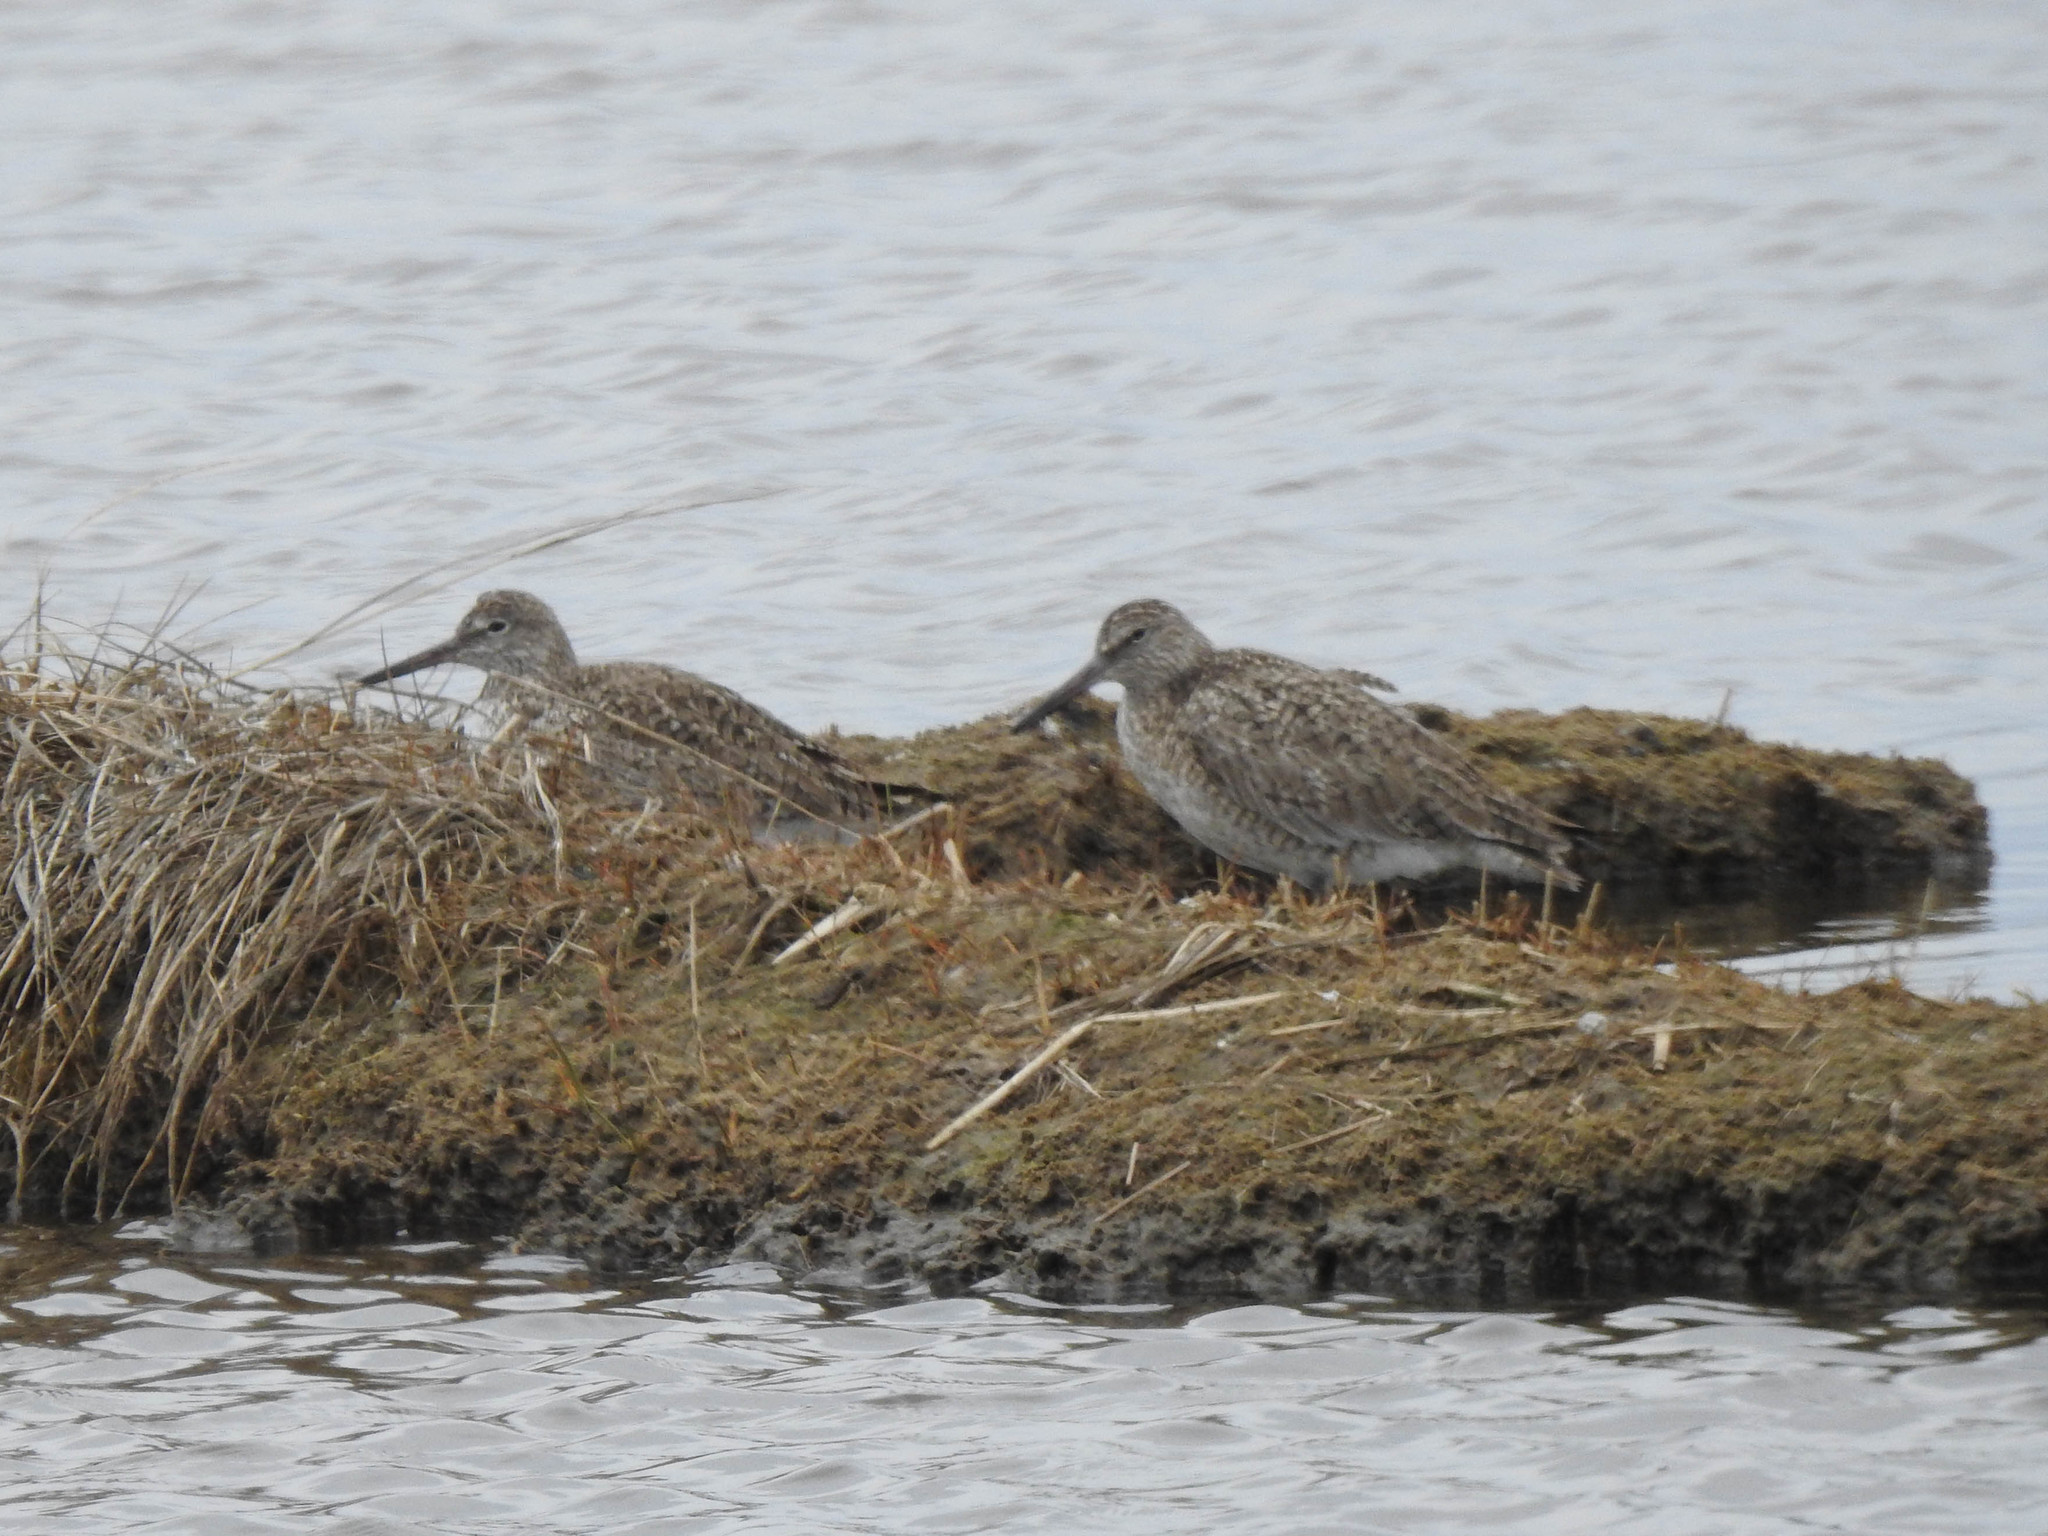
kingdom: Animalia
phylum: Chordata
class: Aves
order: Charadriiformes
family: Scolopacidae
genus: Tringa
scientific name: Tringa semipalmata
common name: Willet
